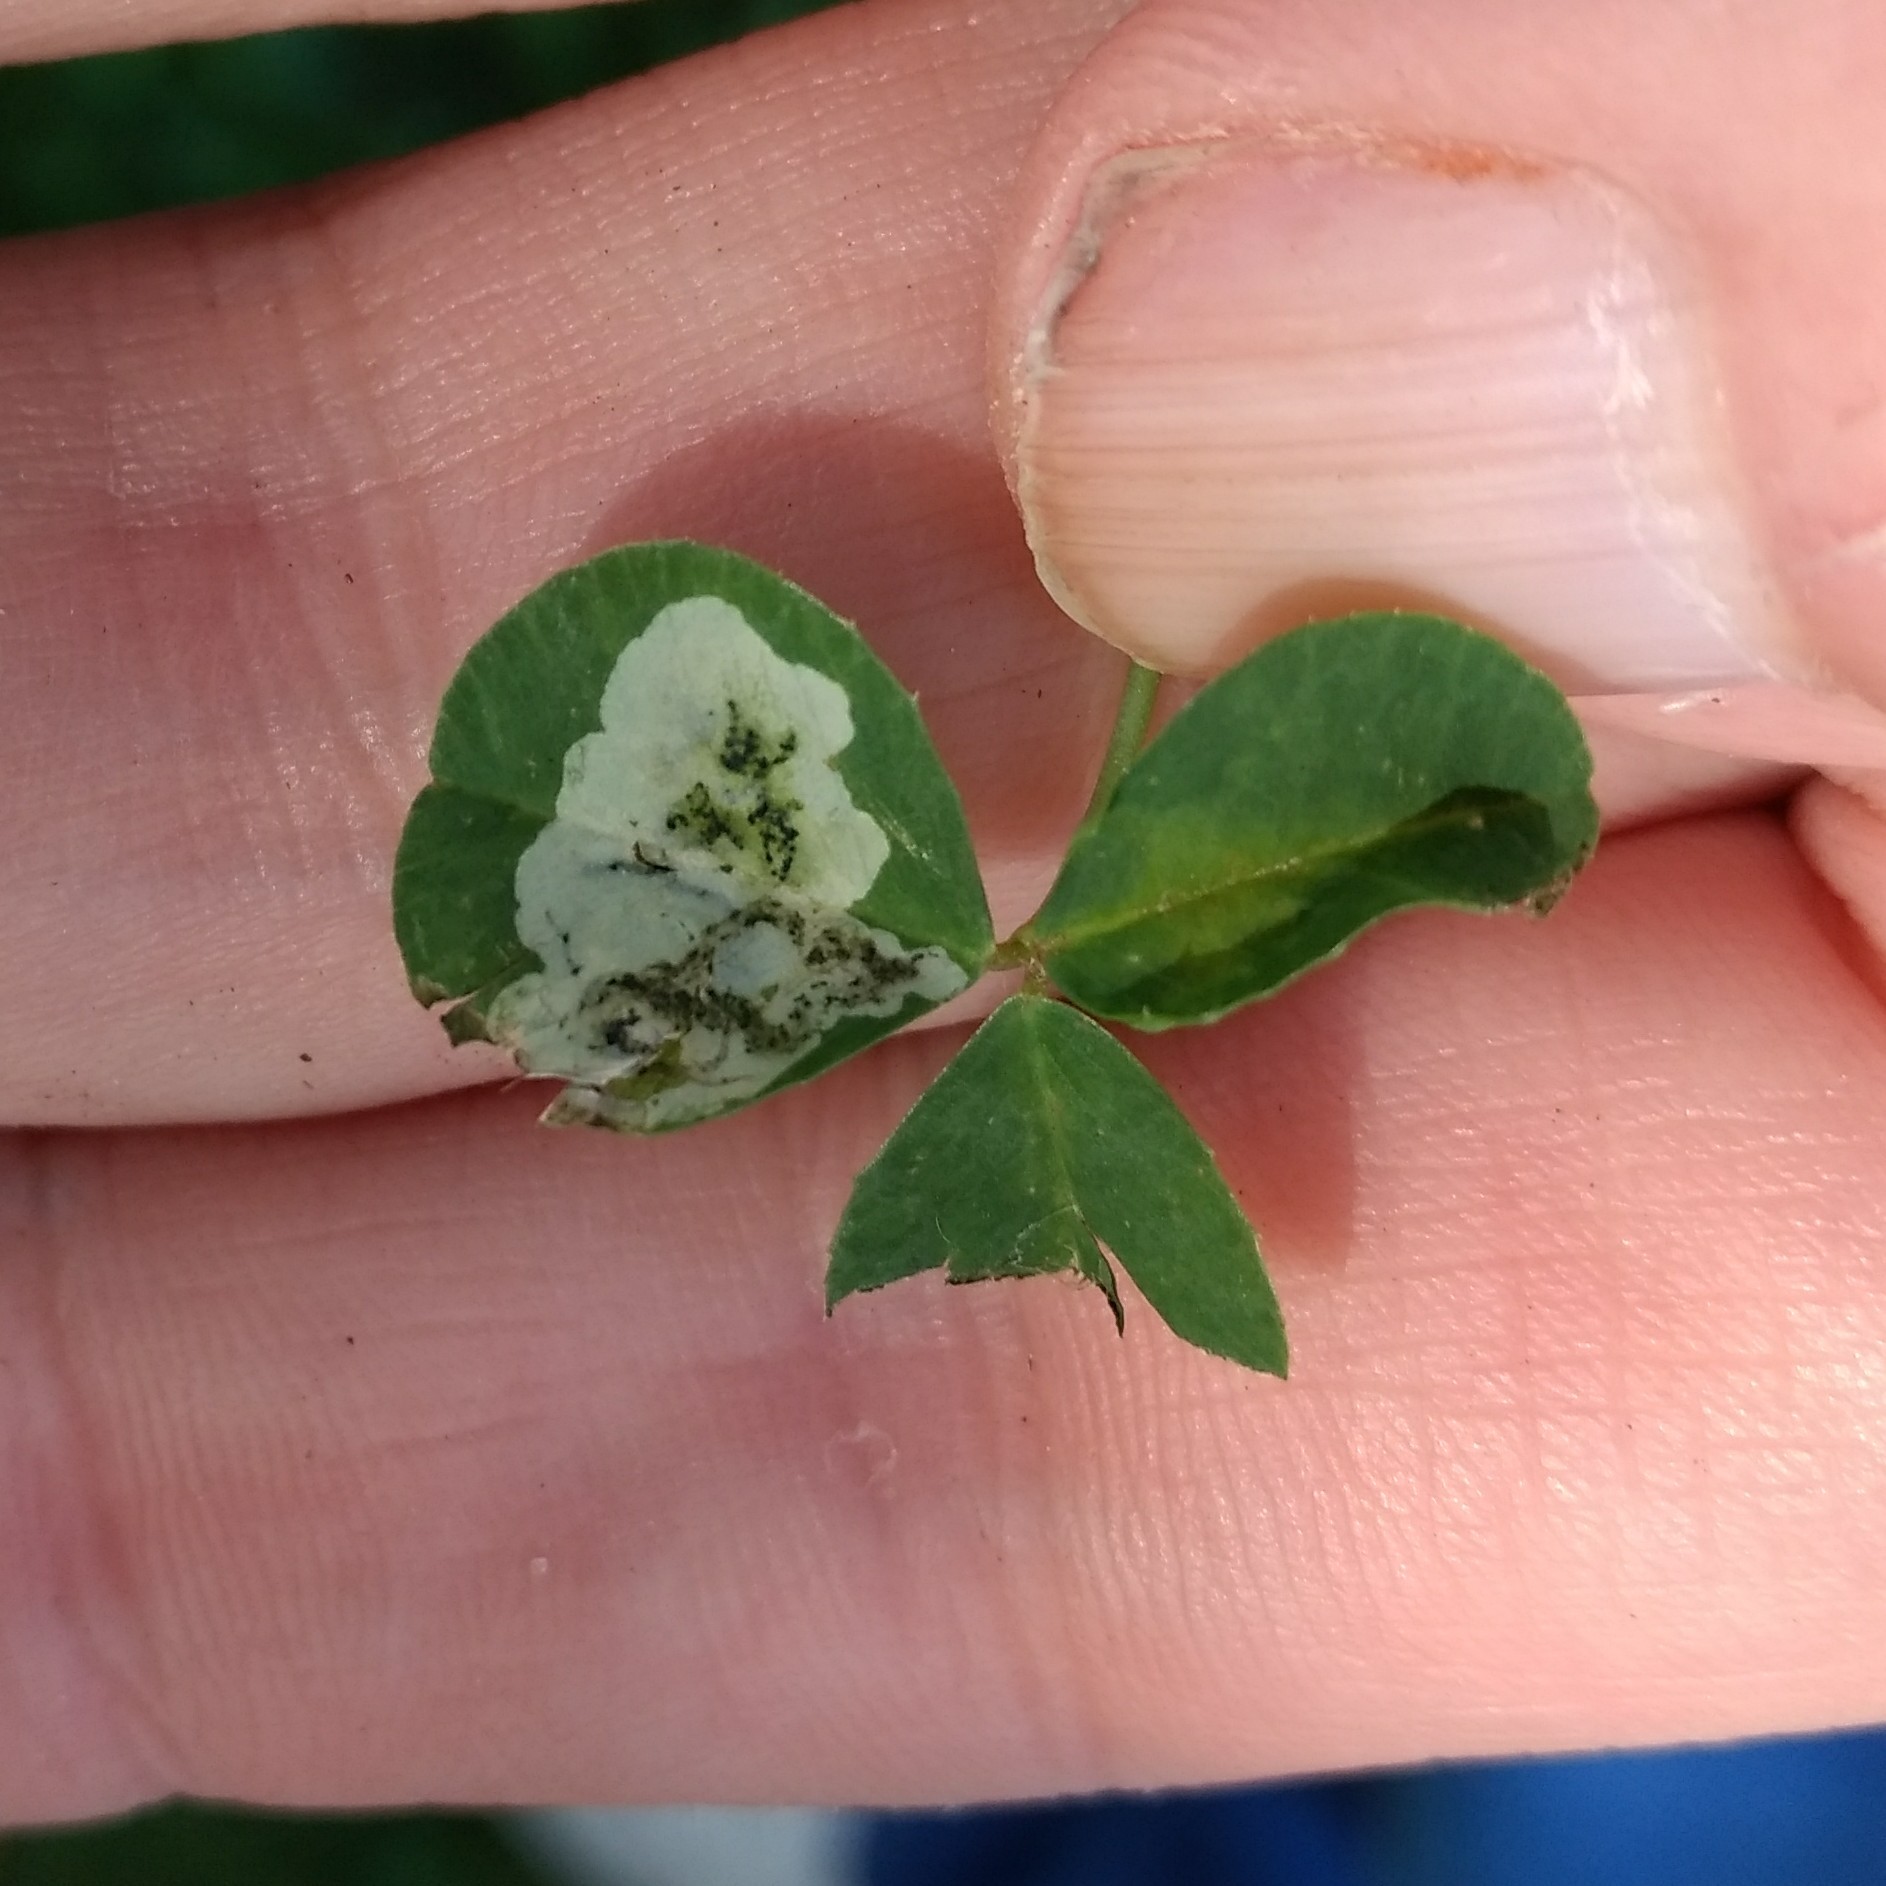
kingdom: Animalia
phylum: Arthropoda
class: Insecta
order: Diptera
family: Agromyzidae
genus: Liriomyza
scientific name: Liriomyza fricki
